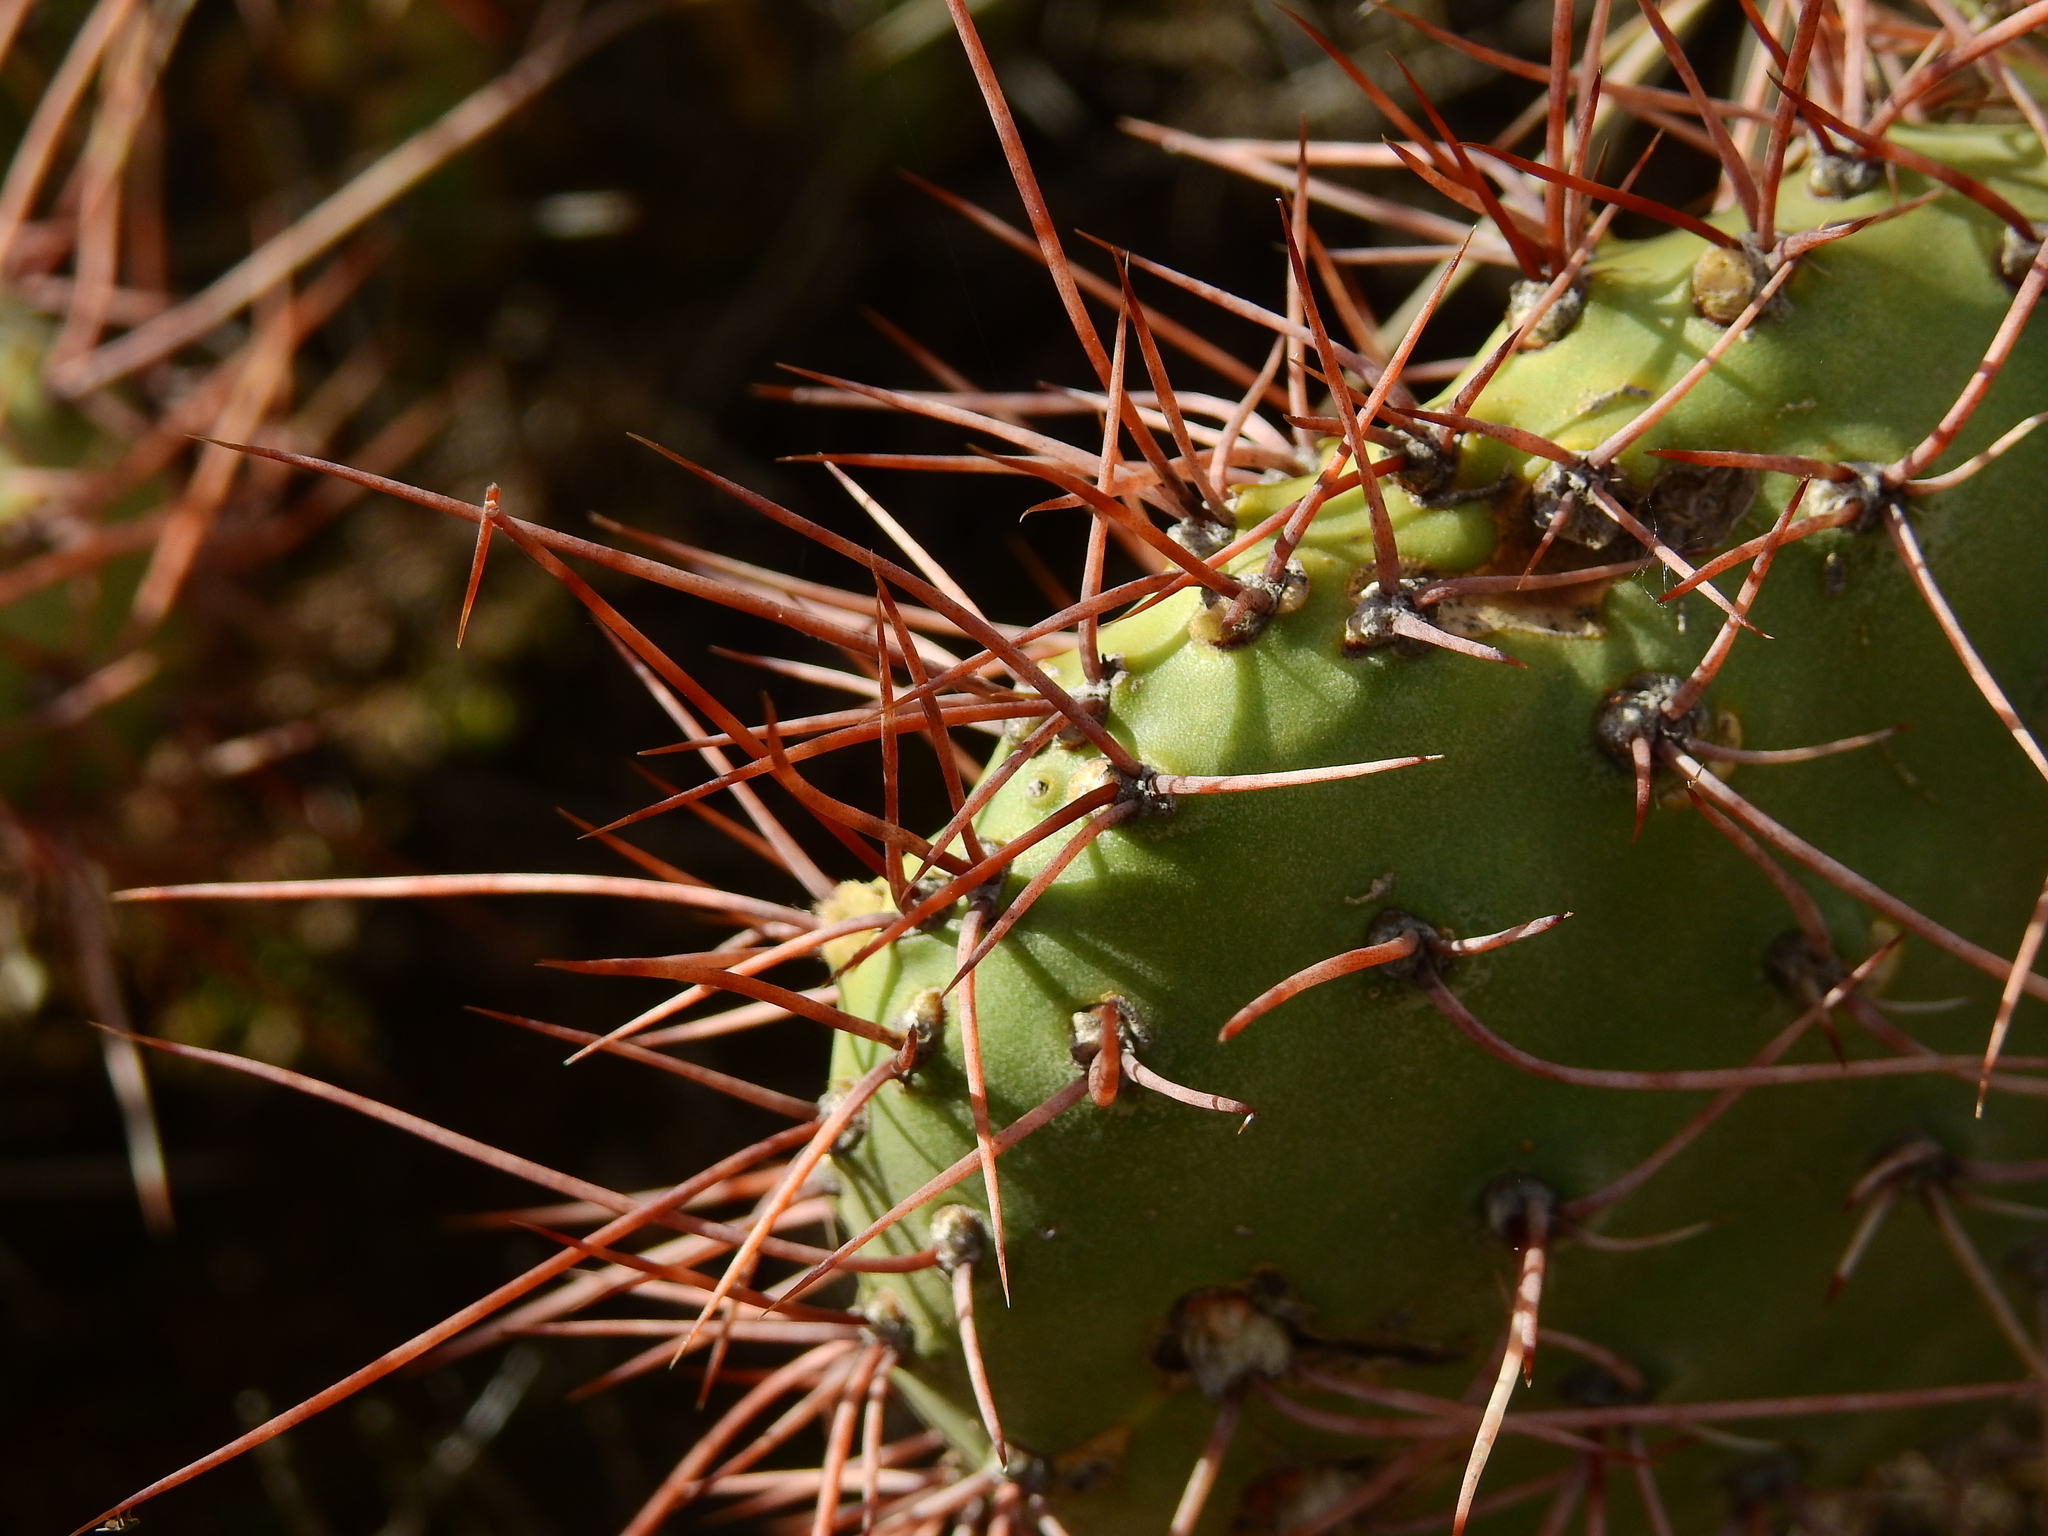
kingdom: Plantae
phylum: Tracheophyta
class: Magnoliopsida
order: Caryophyllales
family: Cactaceae
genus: Opuntia
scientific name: Opuntia sulphurea
